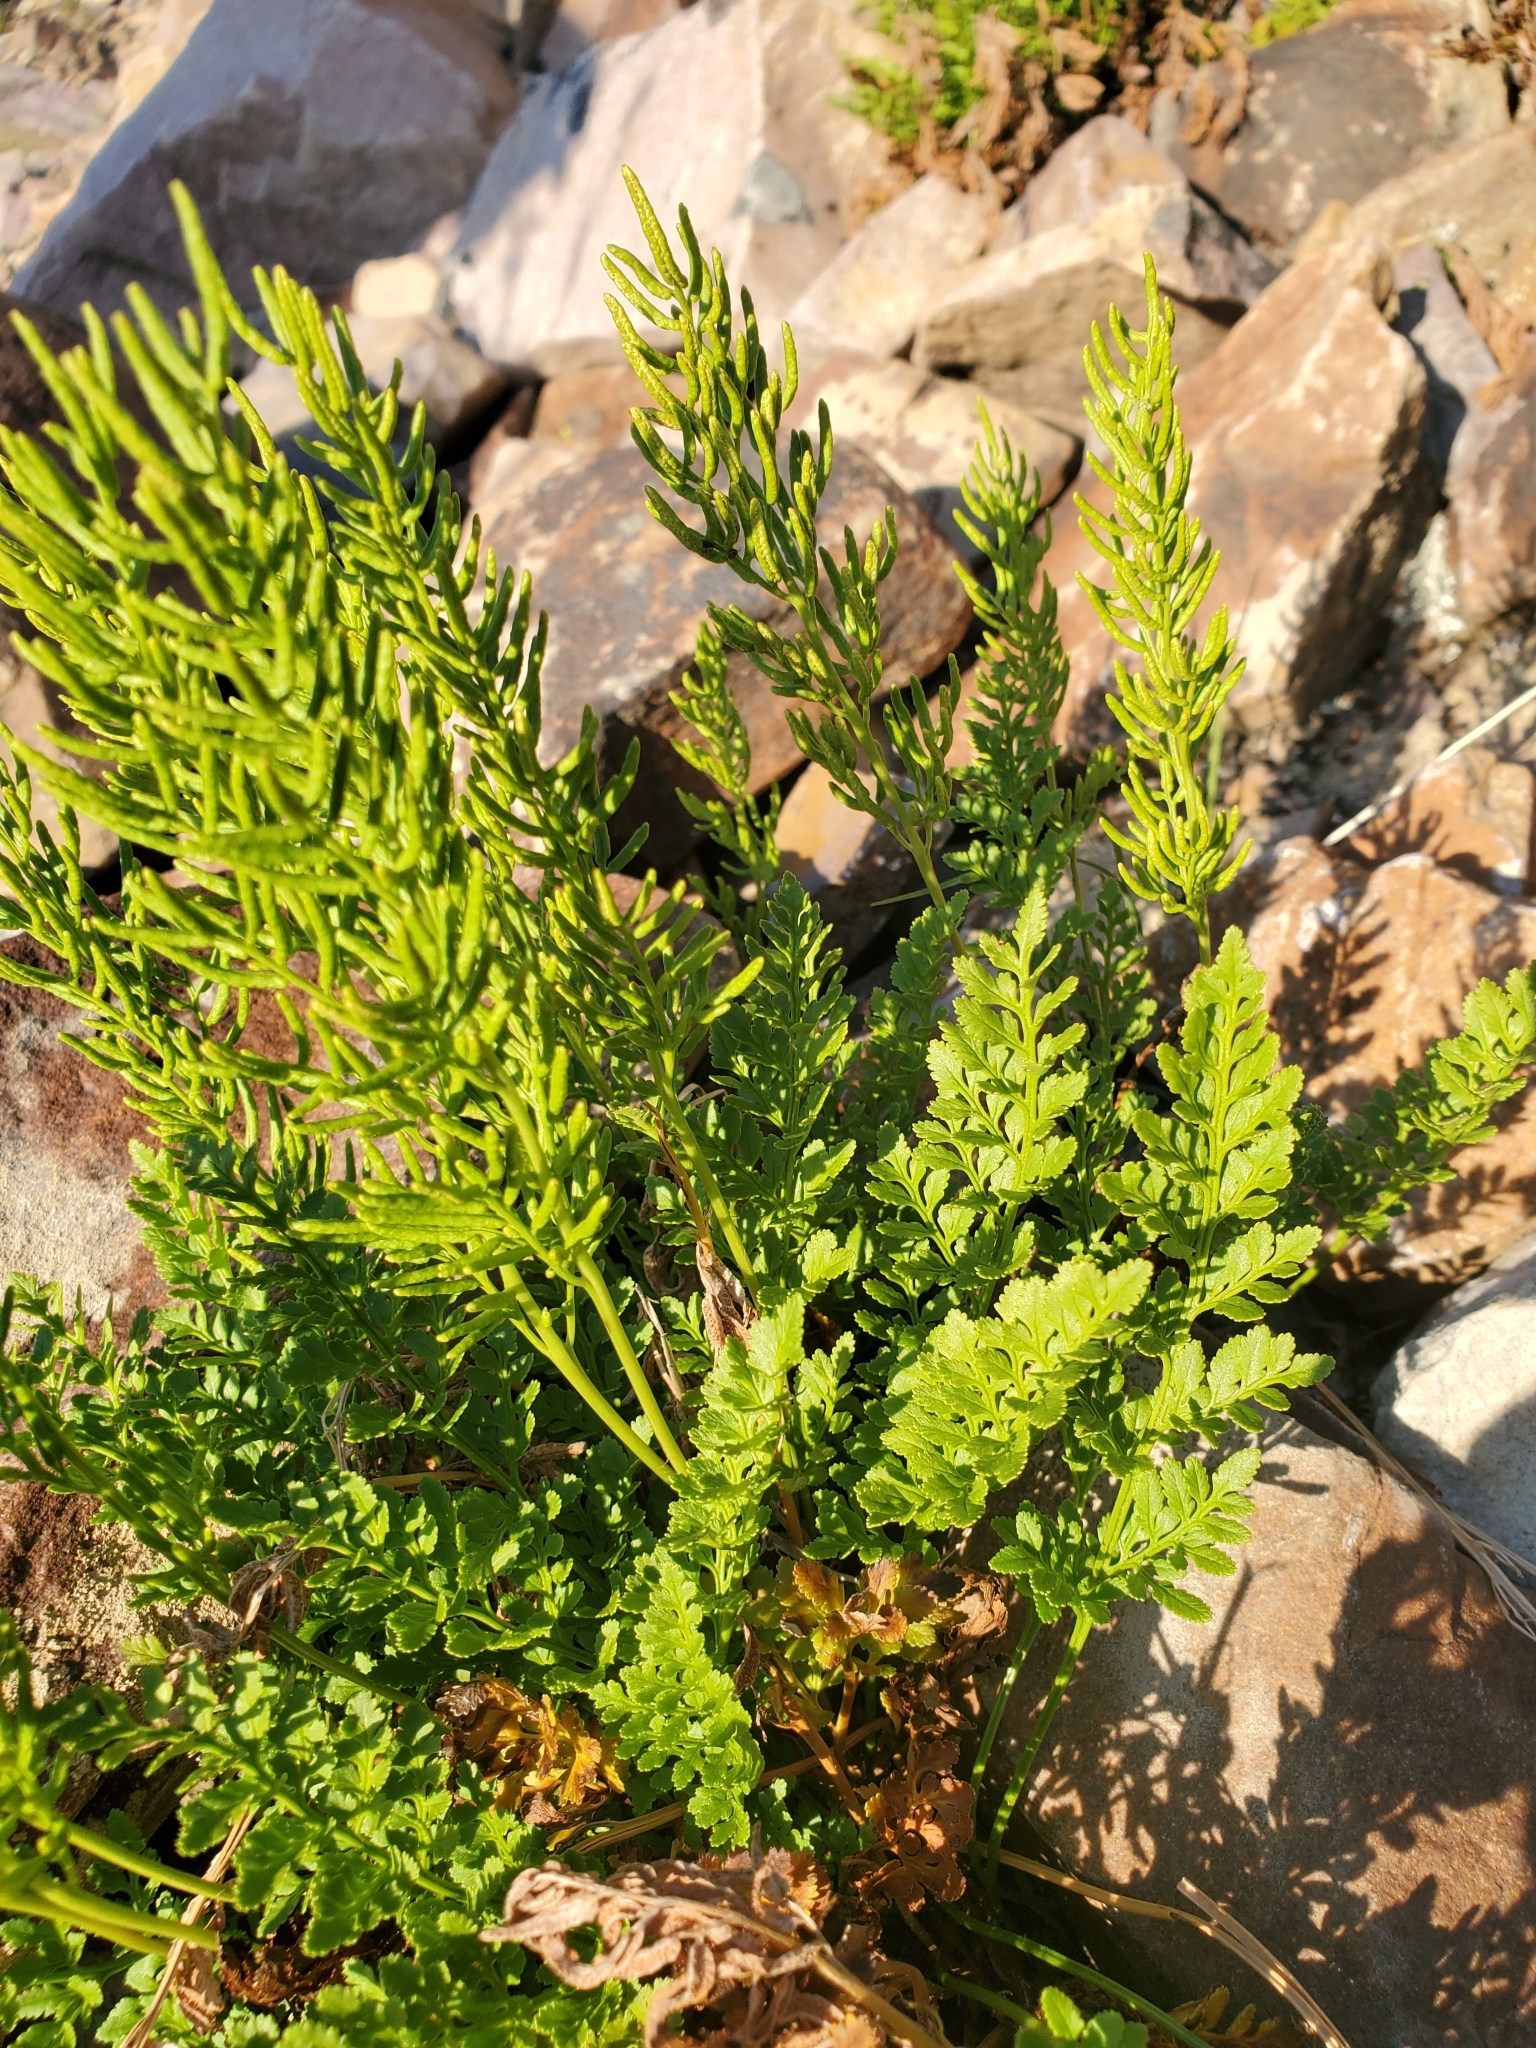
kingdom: Plantae
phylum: Tracheophyta
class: Polypodiopsida
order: Polypodiales
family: Pteridaceae
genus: Cryptogramma
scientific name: Cryptogramma acrostichoides
